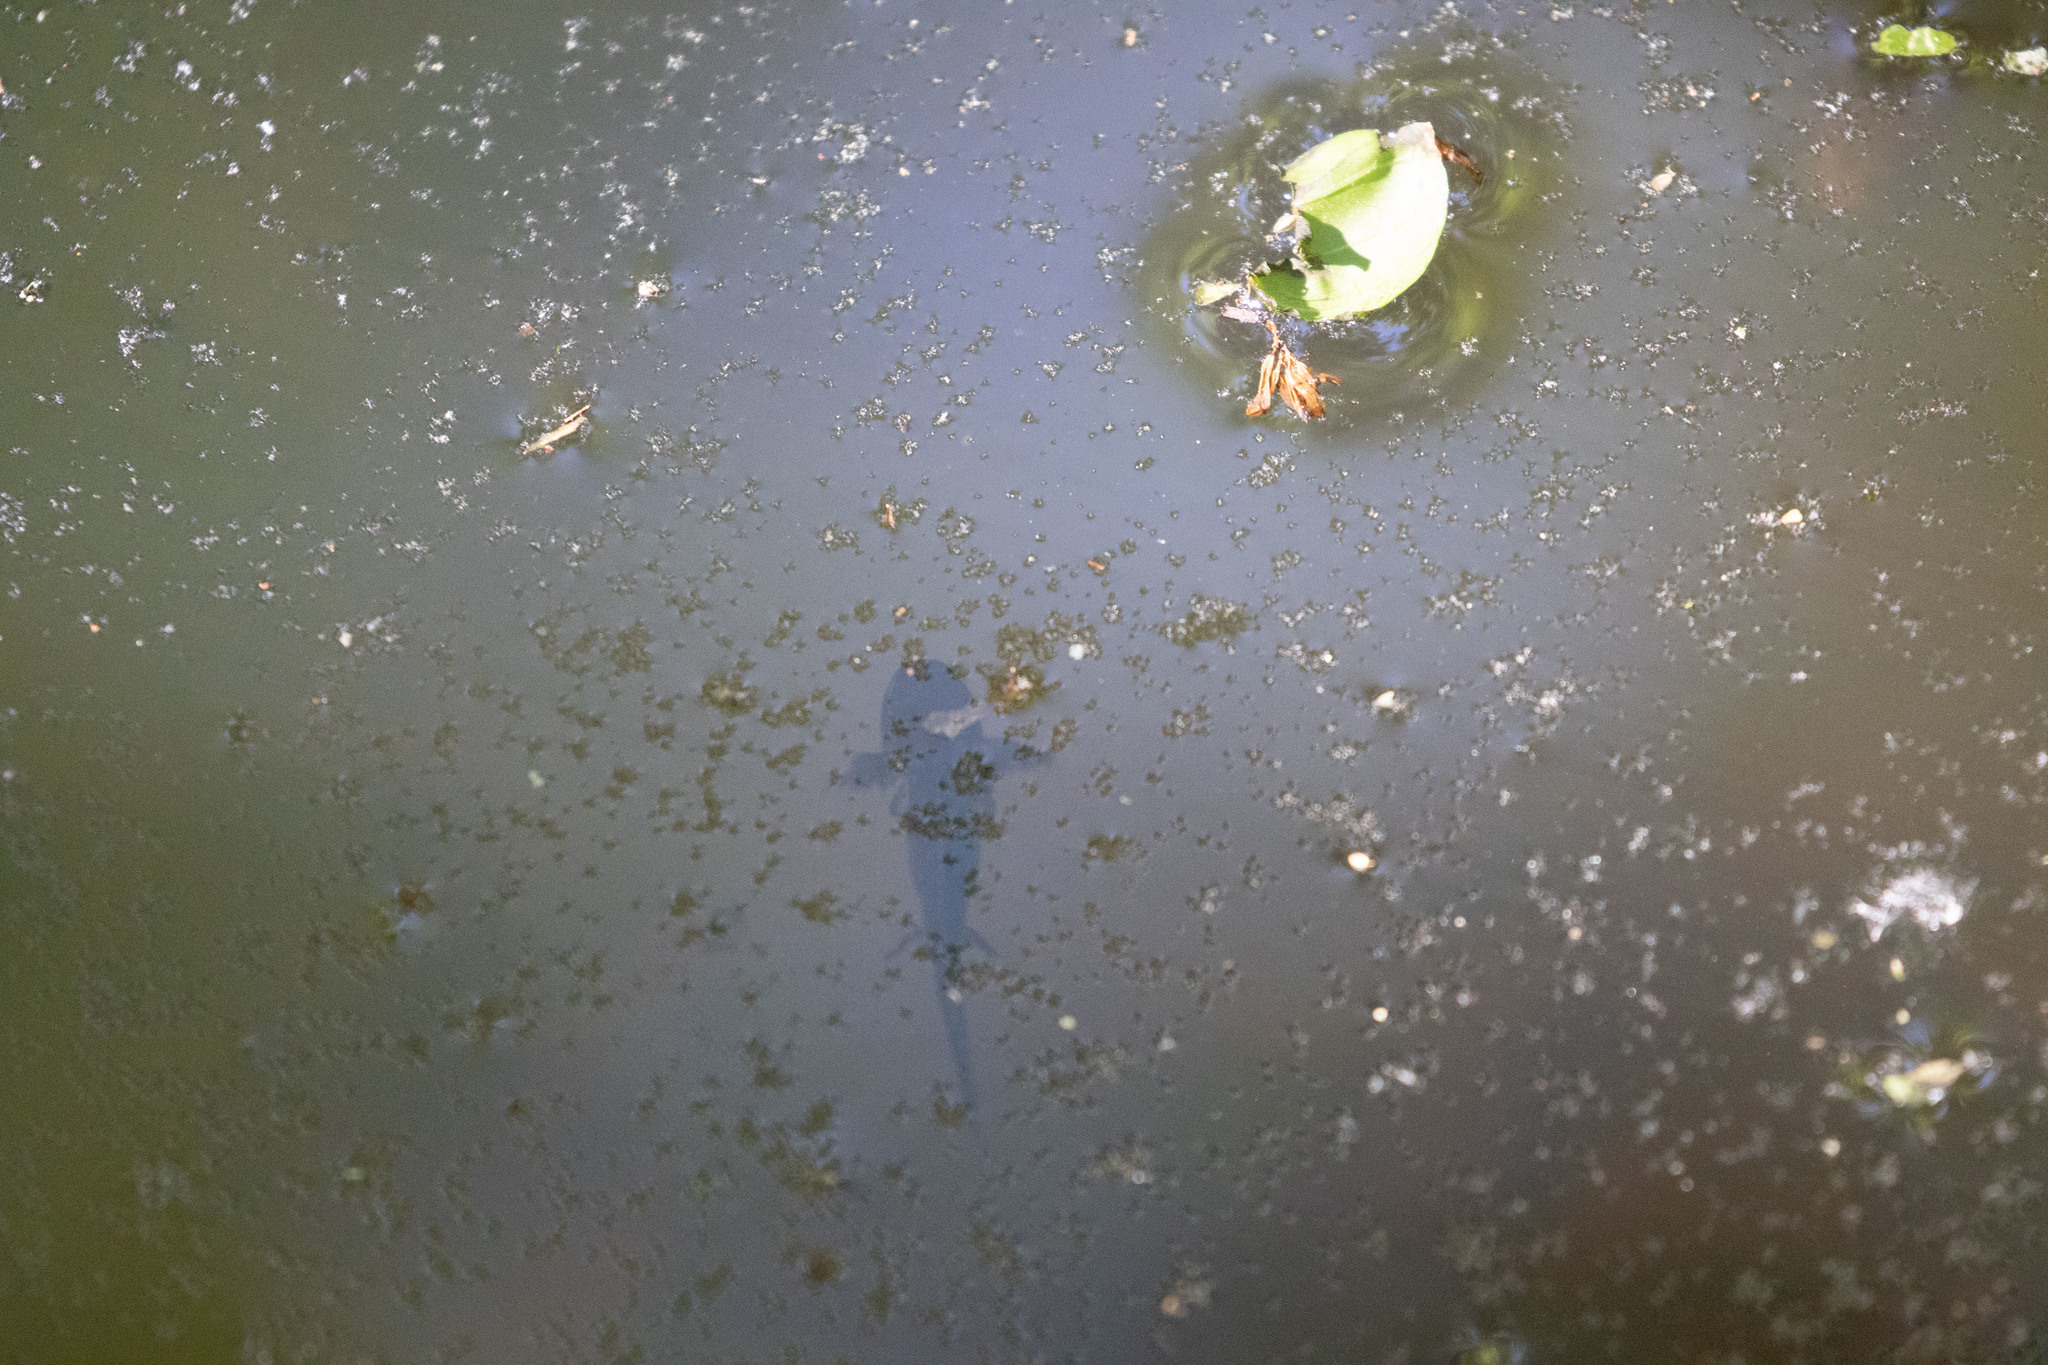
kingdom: Animalia
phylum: Chordata
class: Amphibia
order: Caudata
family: Ambystomatidae
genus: Ambystoma
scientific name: Ambystoma maculatum
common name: Spotted salamander
